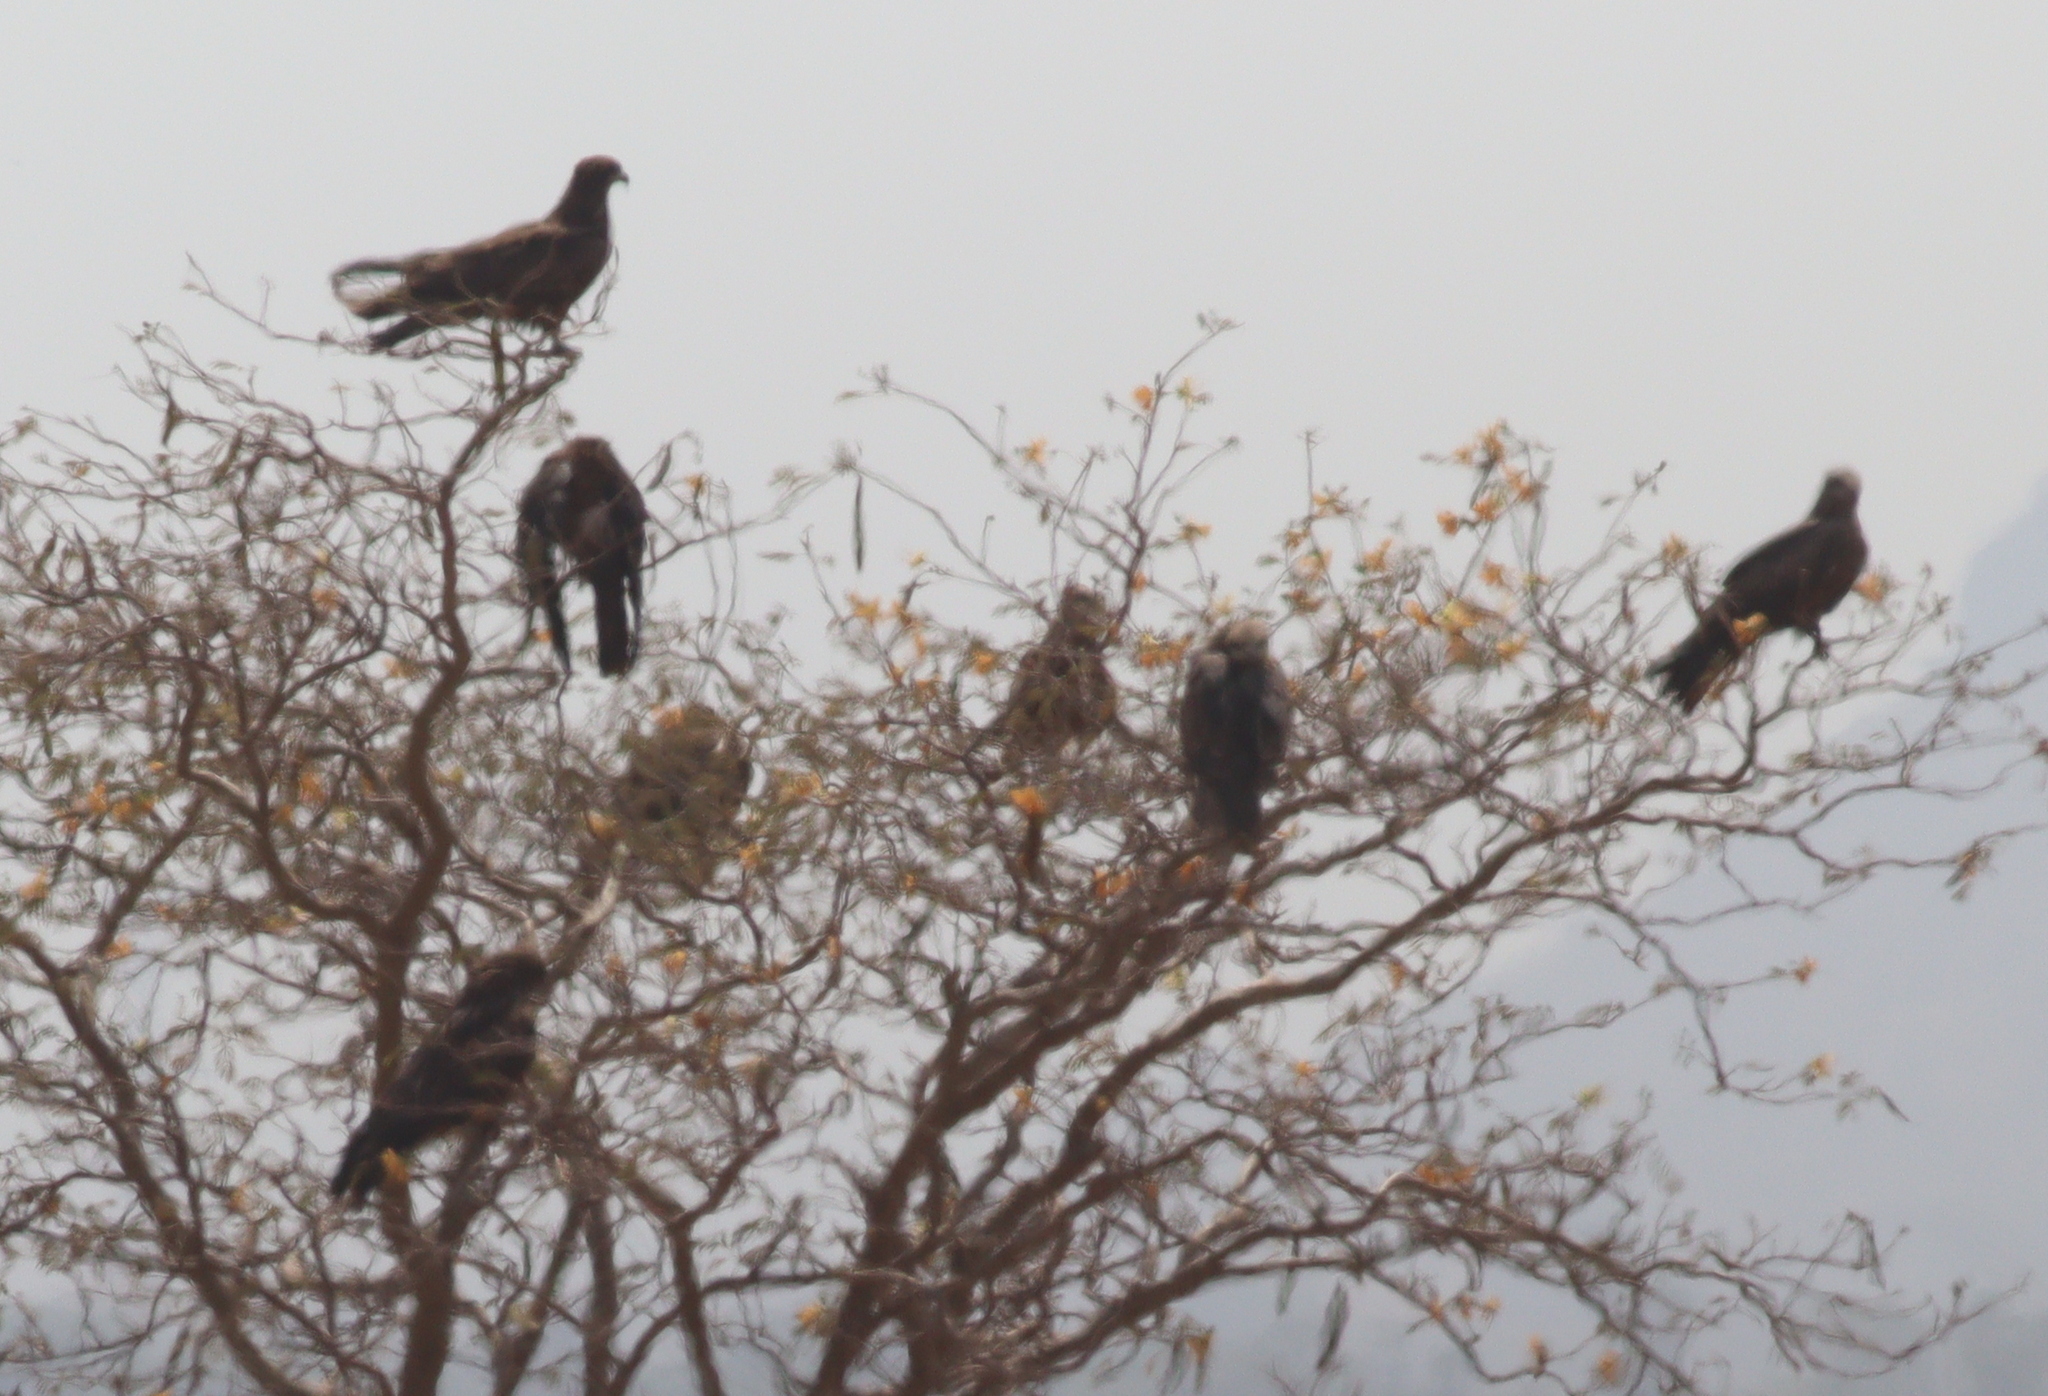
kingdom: Animalia
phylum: Chordata
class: Aves
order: Accipitriformes
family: Accipitridae
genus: Milvus
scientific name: Milvus migrans
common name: Black kite
